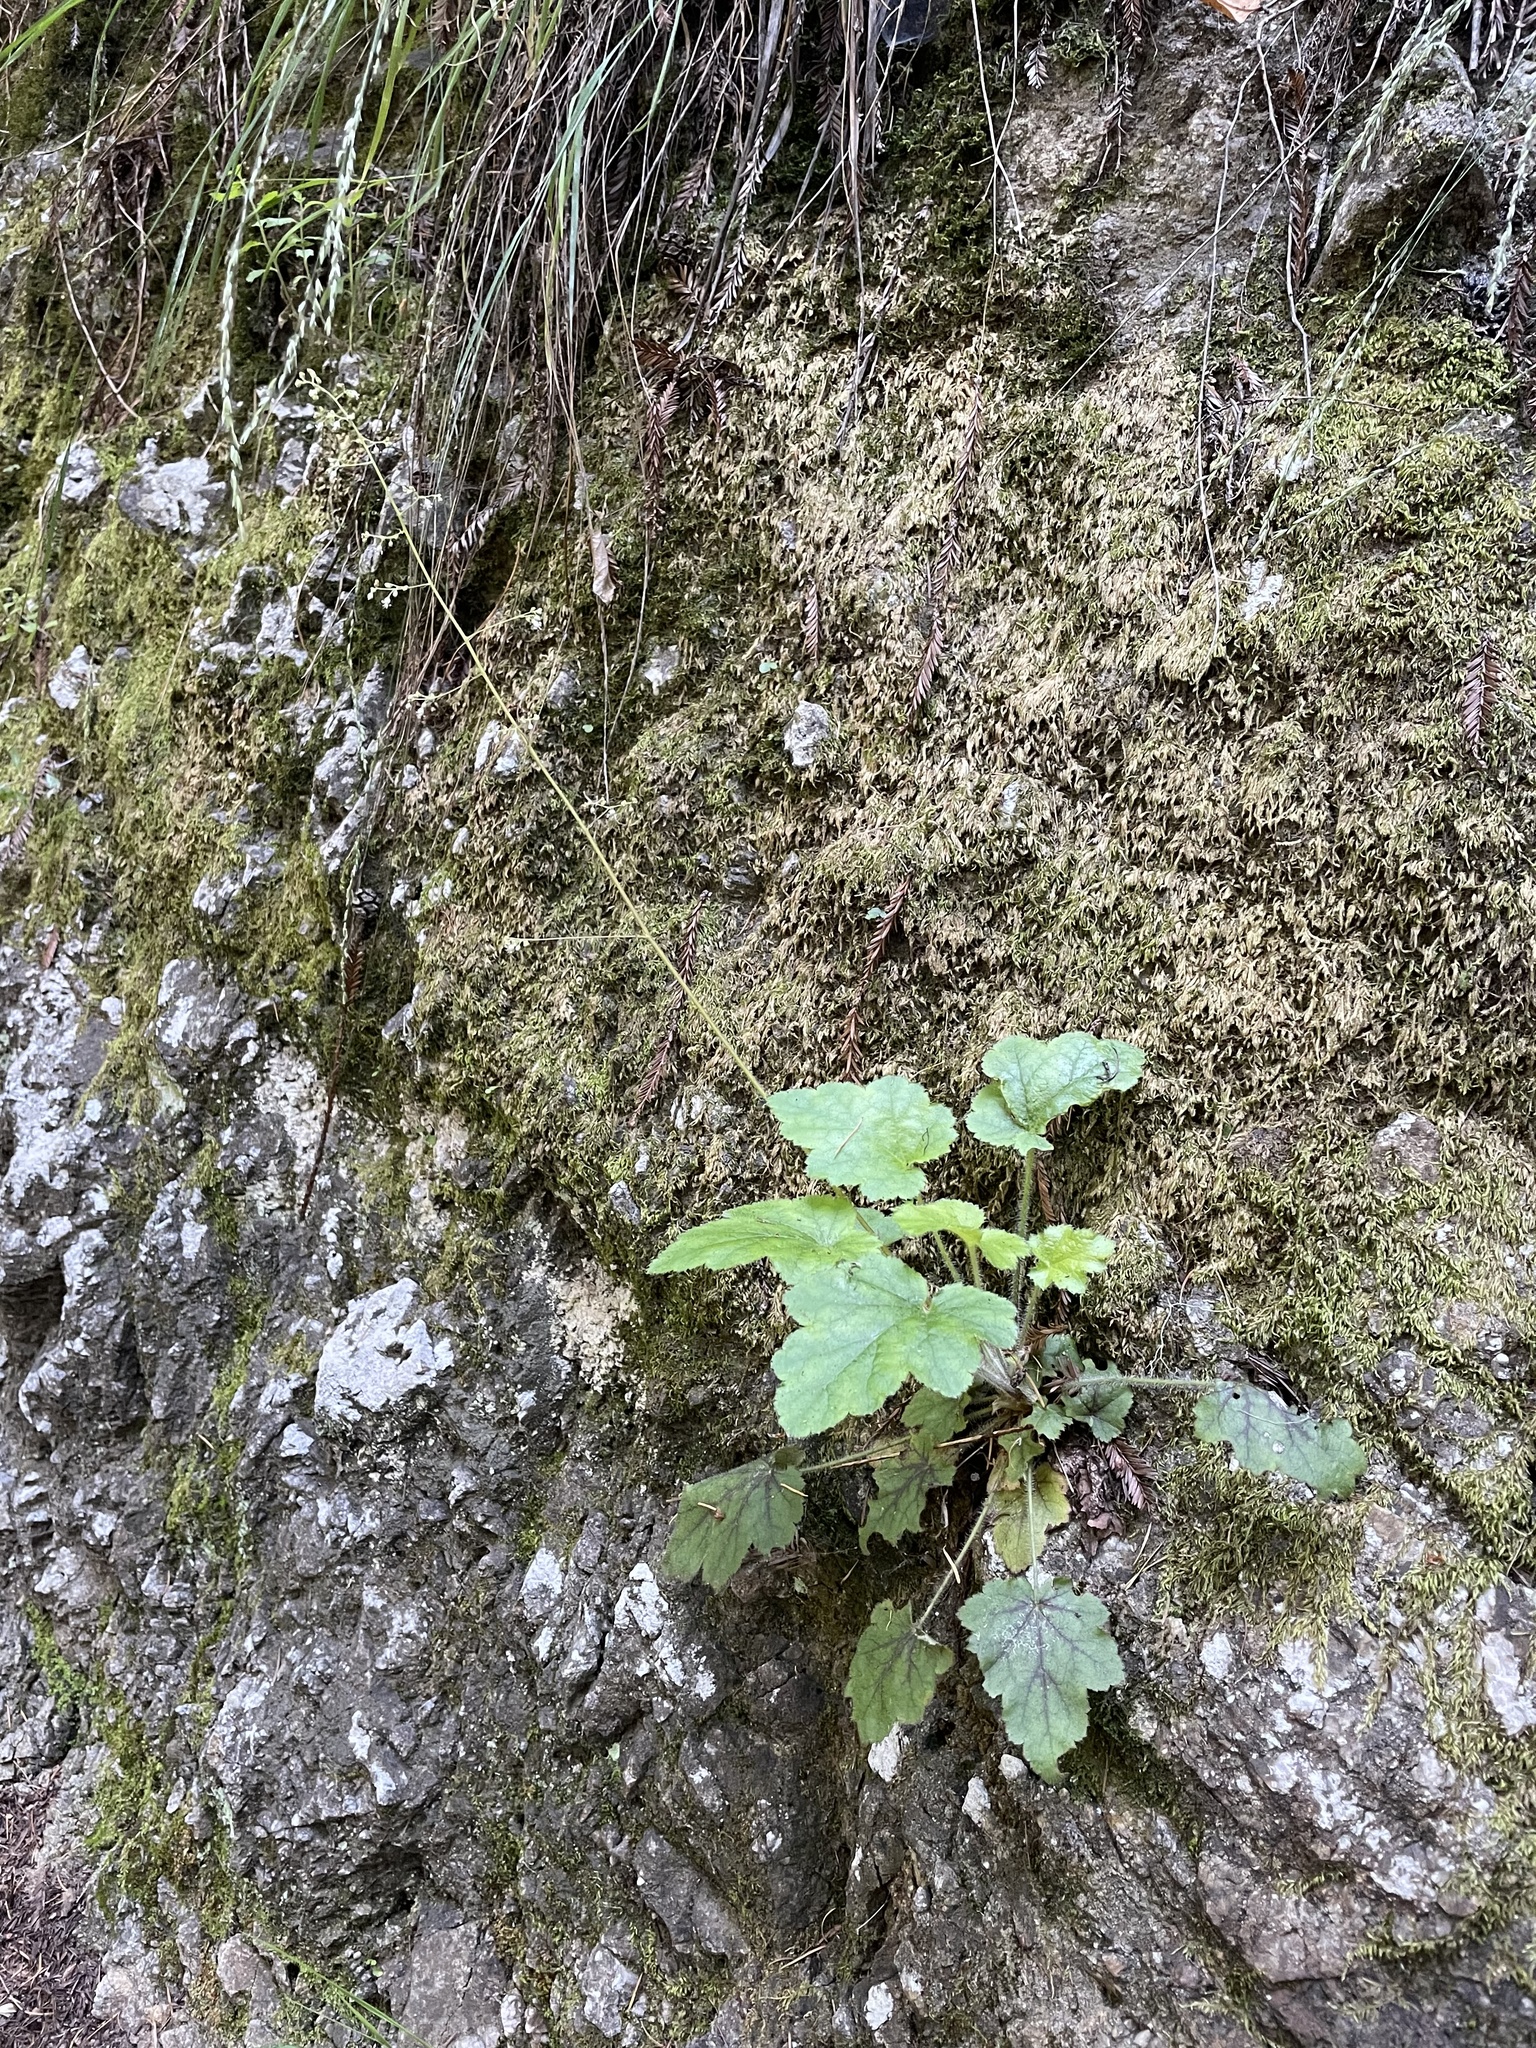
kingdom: Plantae
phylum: Tracheophyta
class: Magnoliopsida
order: Saxifragales
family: Saxifragaceae
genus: Heuchera
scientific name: Heuchera micrantha
